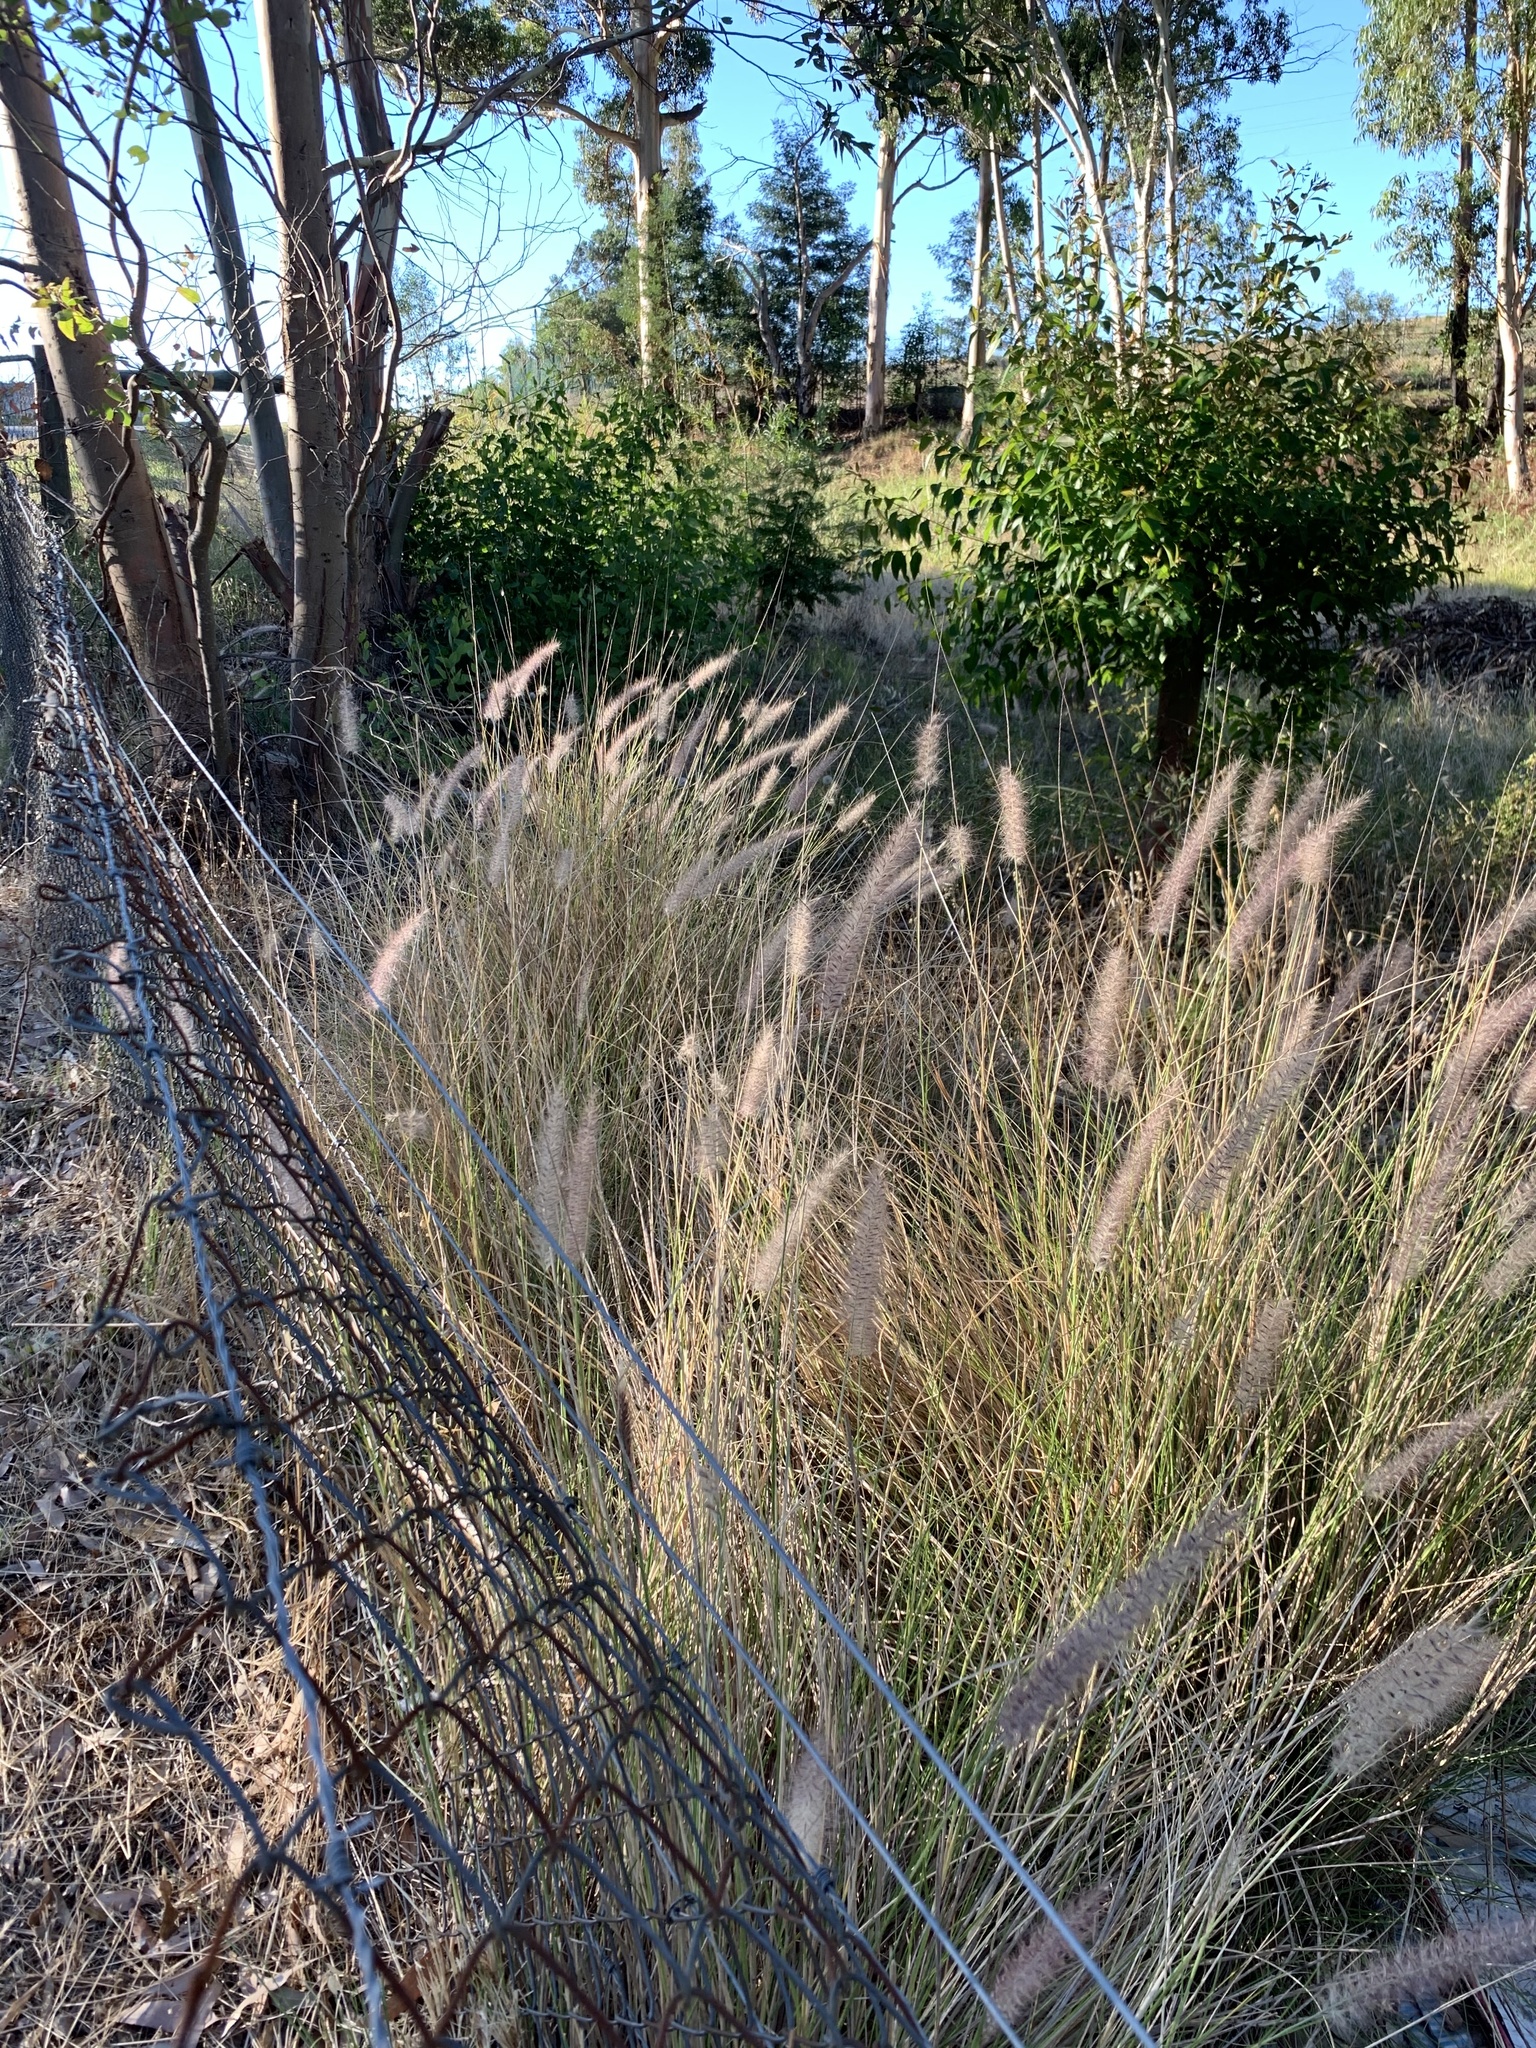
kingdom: Plantae
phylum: Tracheophyta
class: Liliopsida
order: Poales
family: Poaceae
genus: Cenchrus
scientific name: Cenchrus setaceus
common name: Crimson fountaingrass
